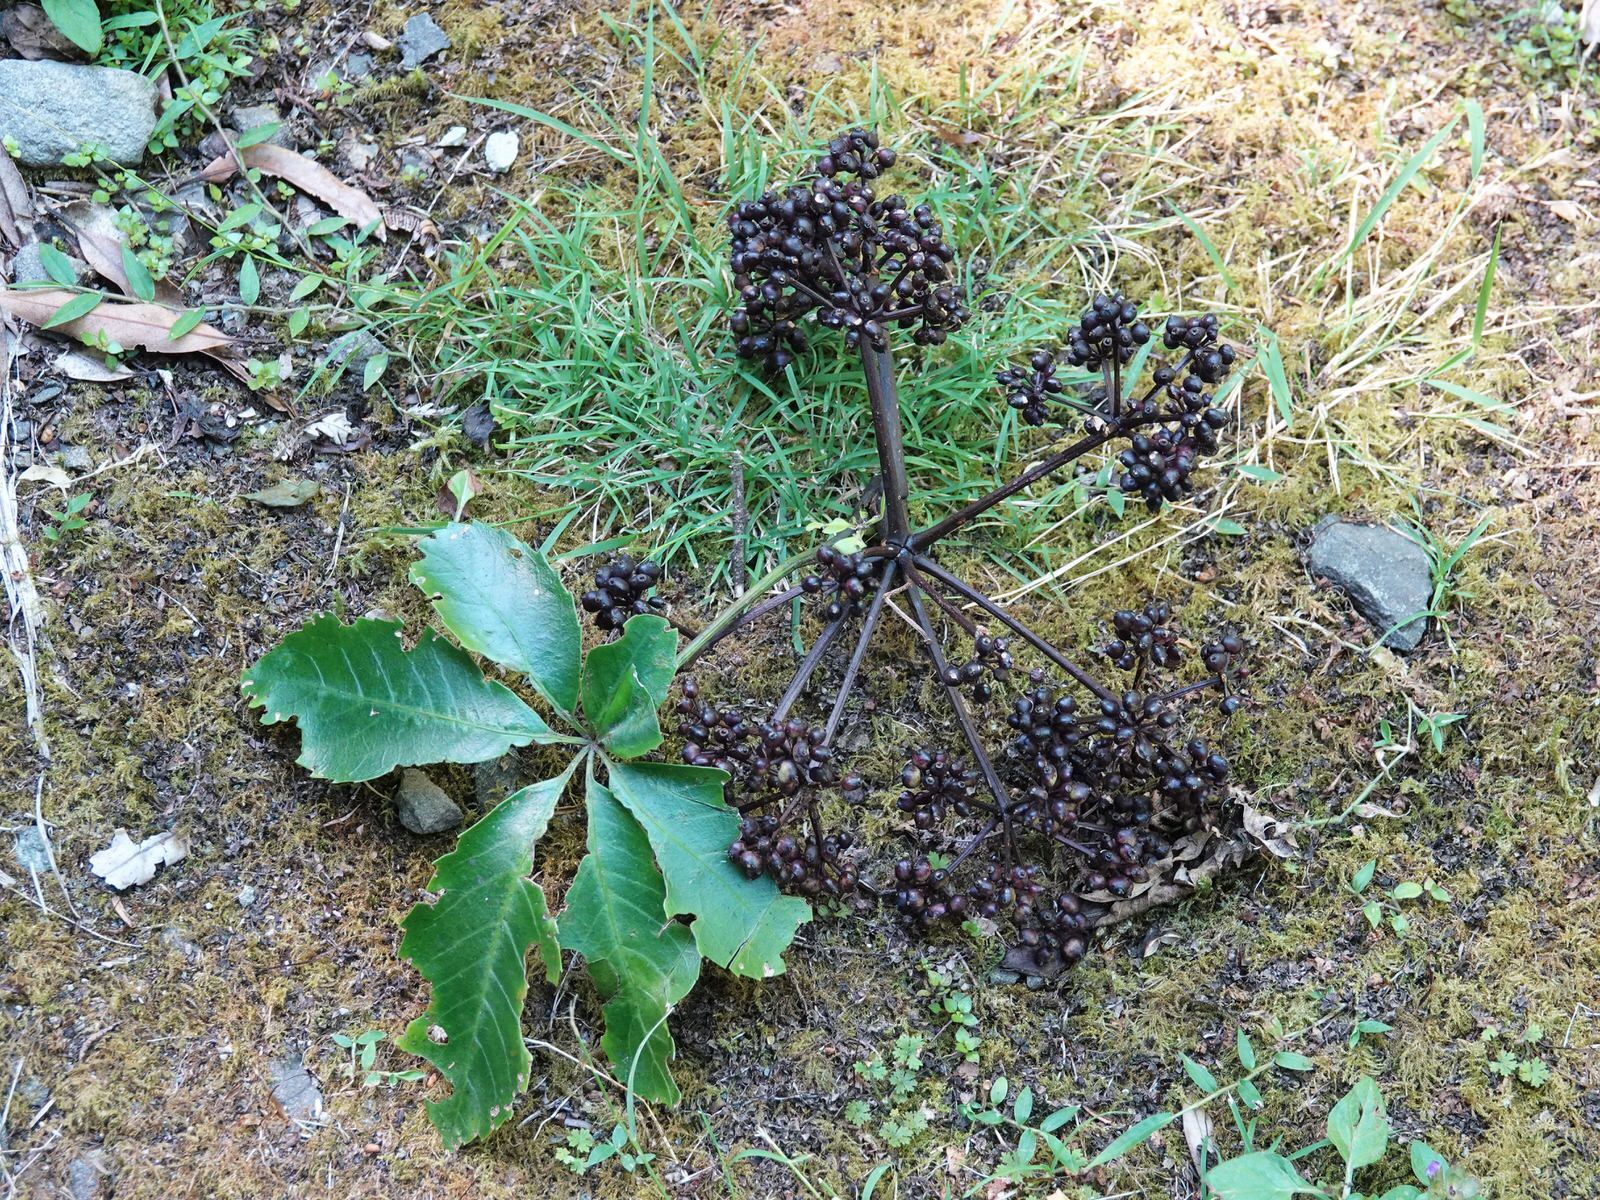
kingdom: Plantae
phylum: Tracheophyta
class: Magnoliopsida
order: Apiales
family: Araliaceae
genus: Neopanax
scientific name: Neopanax arboreus
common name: Five-fingers
